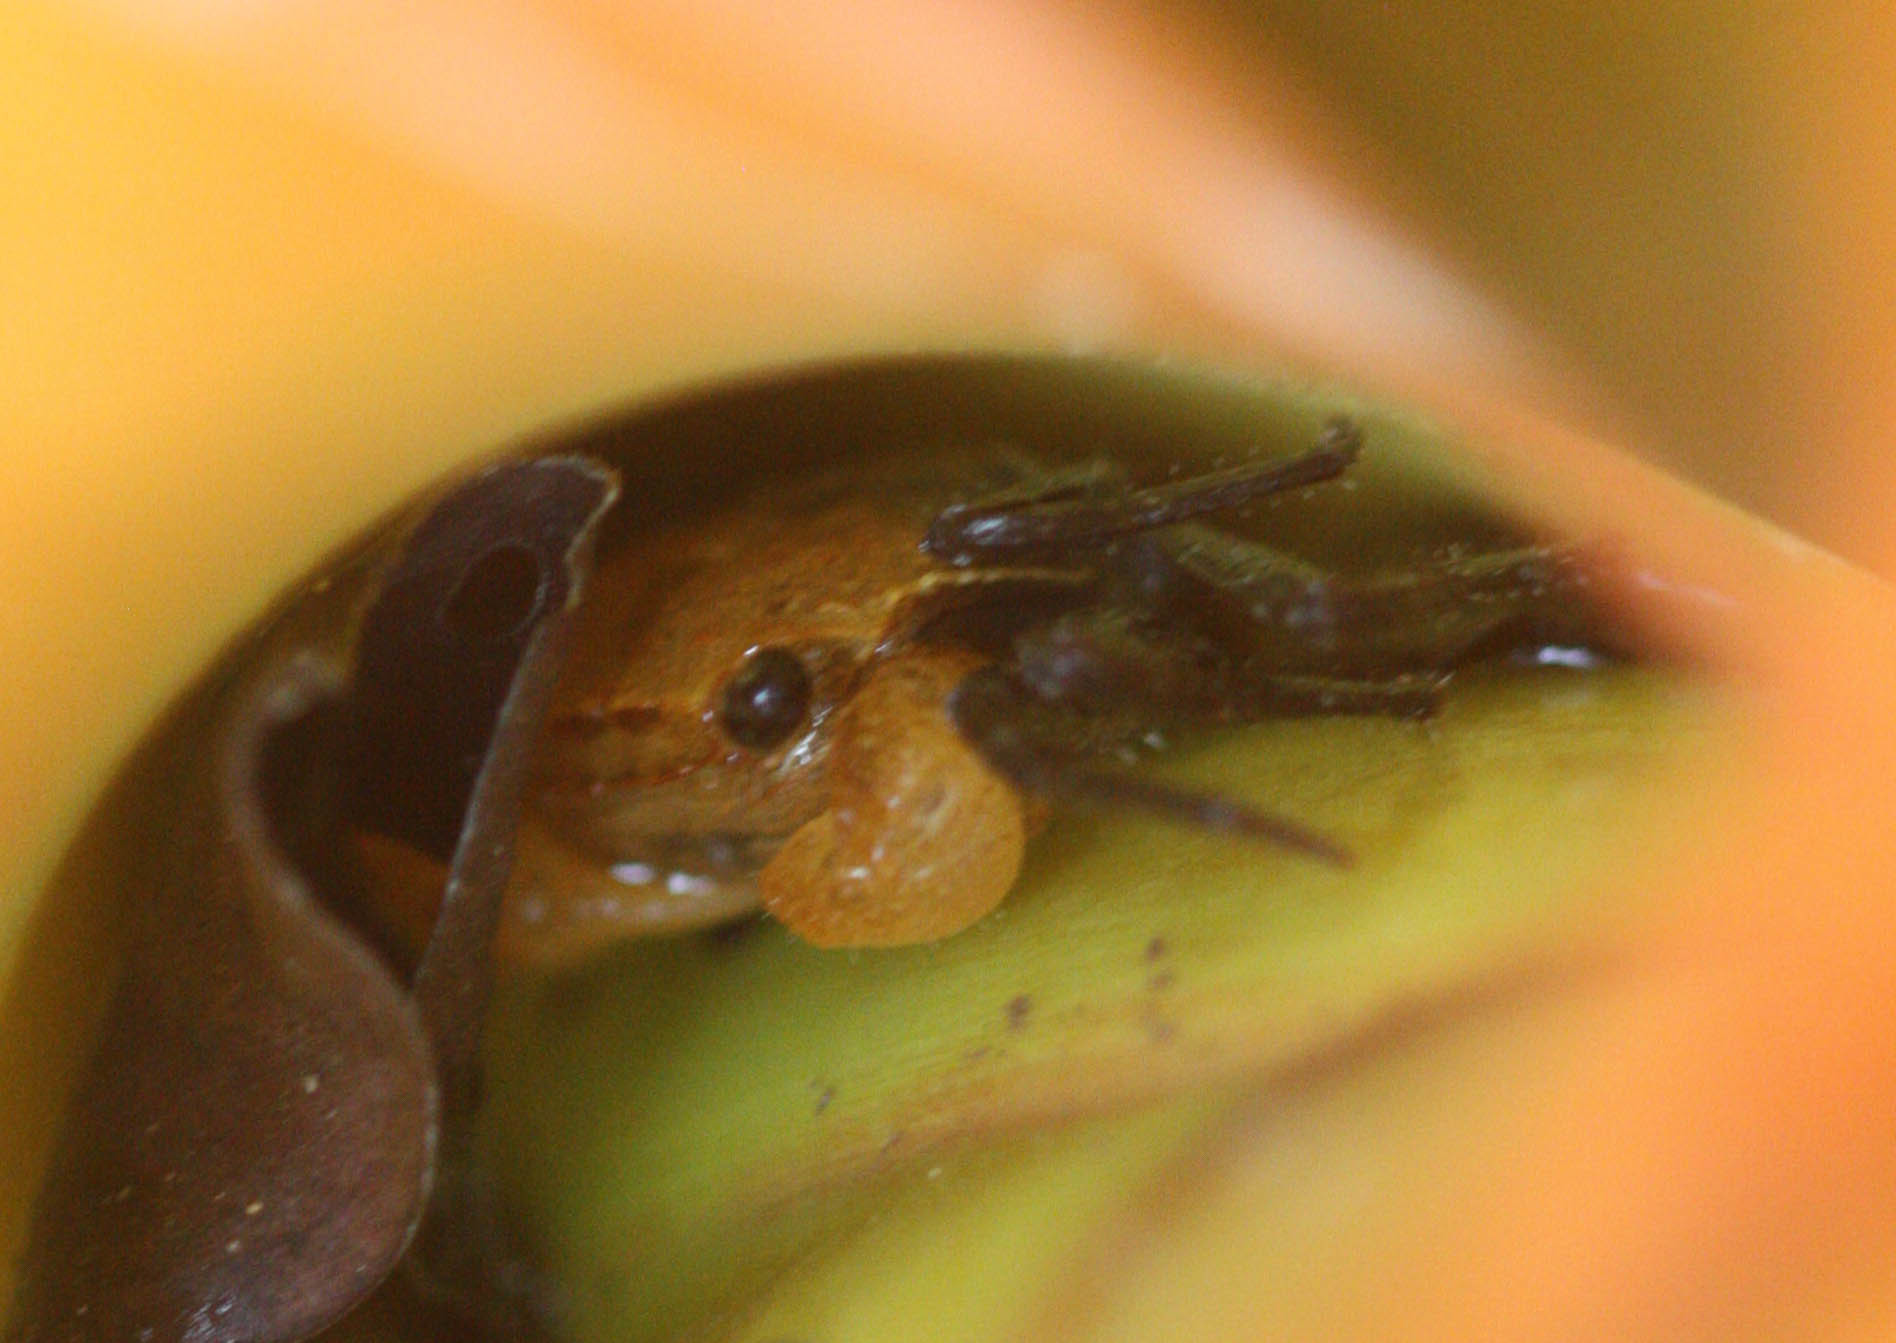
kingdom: Animalia
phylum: Arthropoda
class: Malacostraca
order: Decapoda
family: Sesarmidae
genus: Geosesarma
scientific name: Geosesarma faustum
